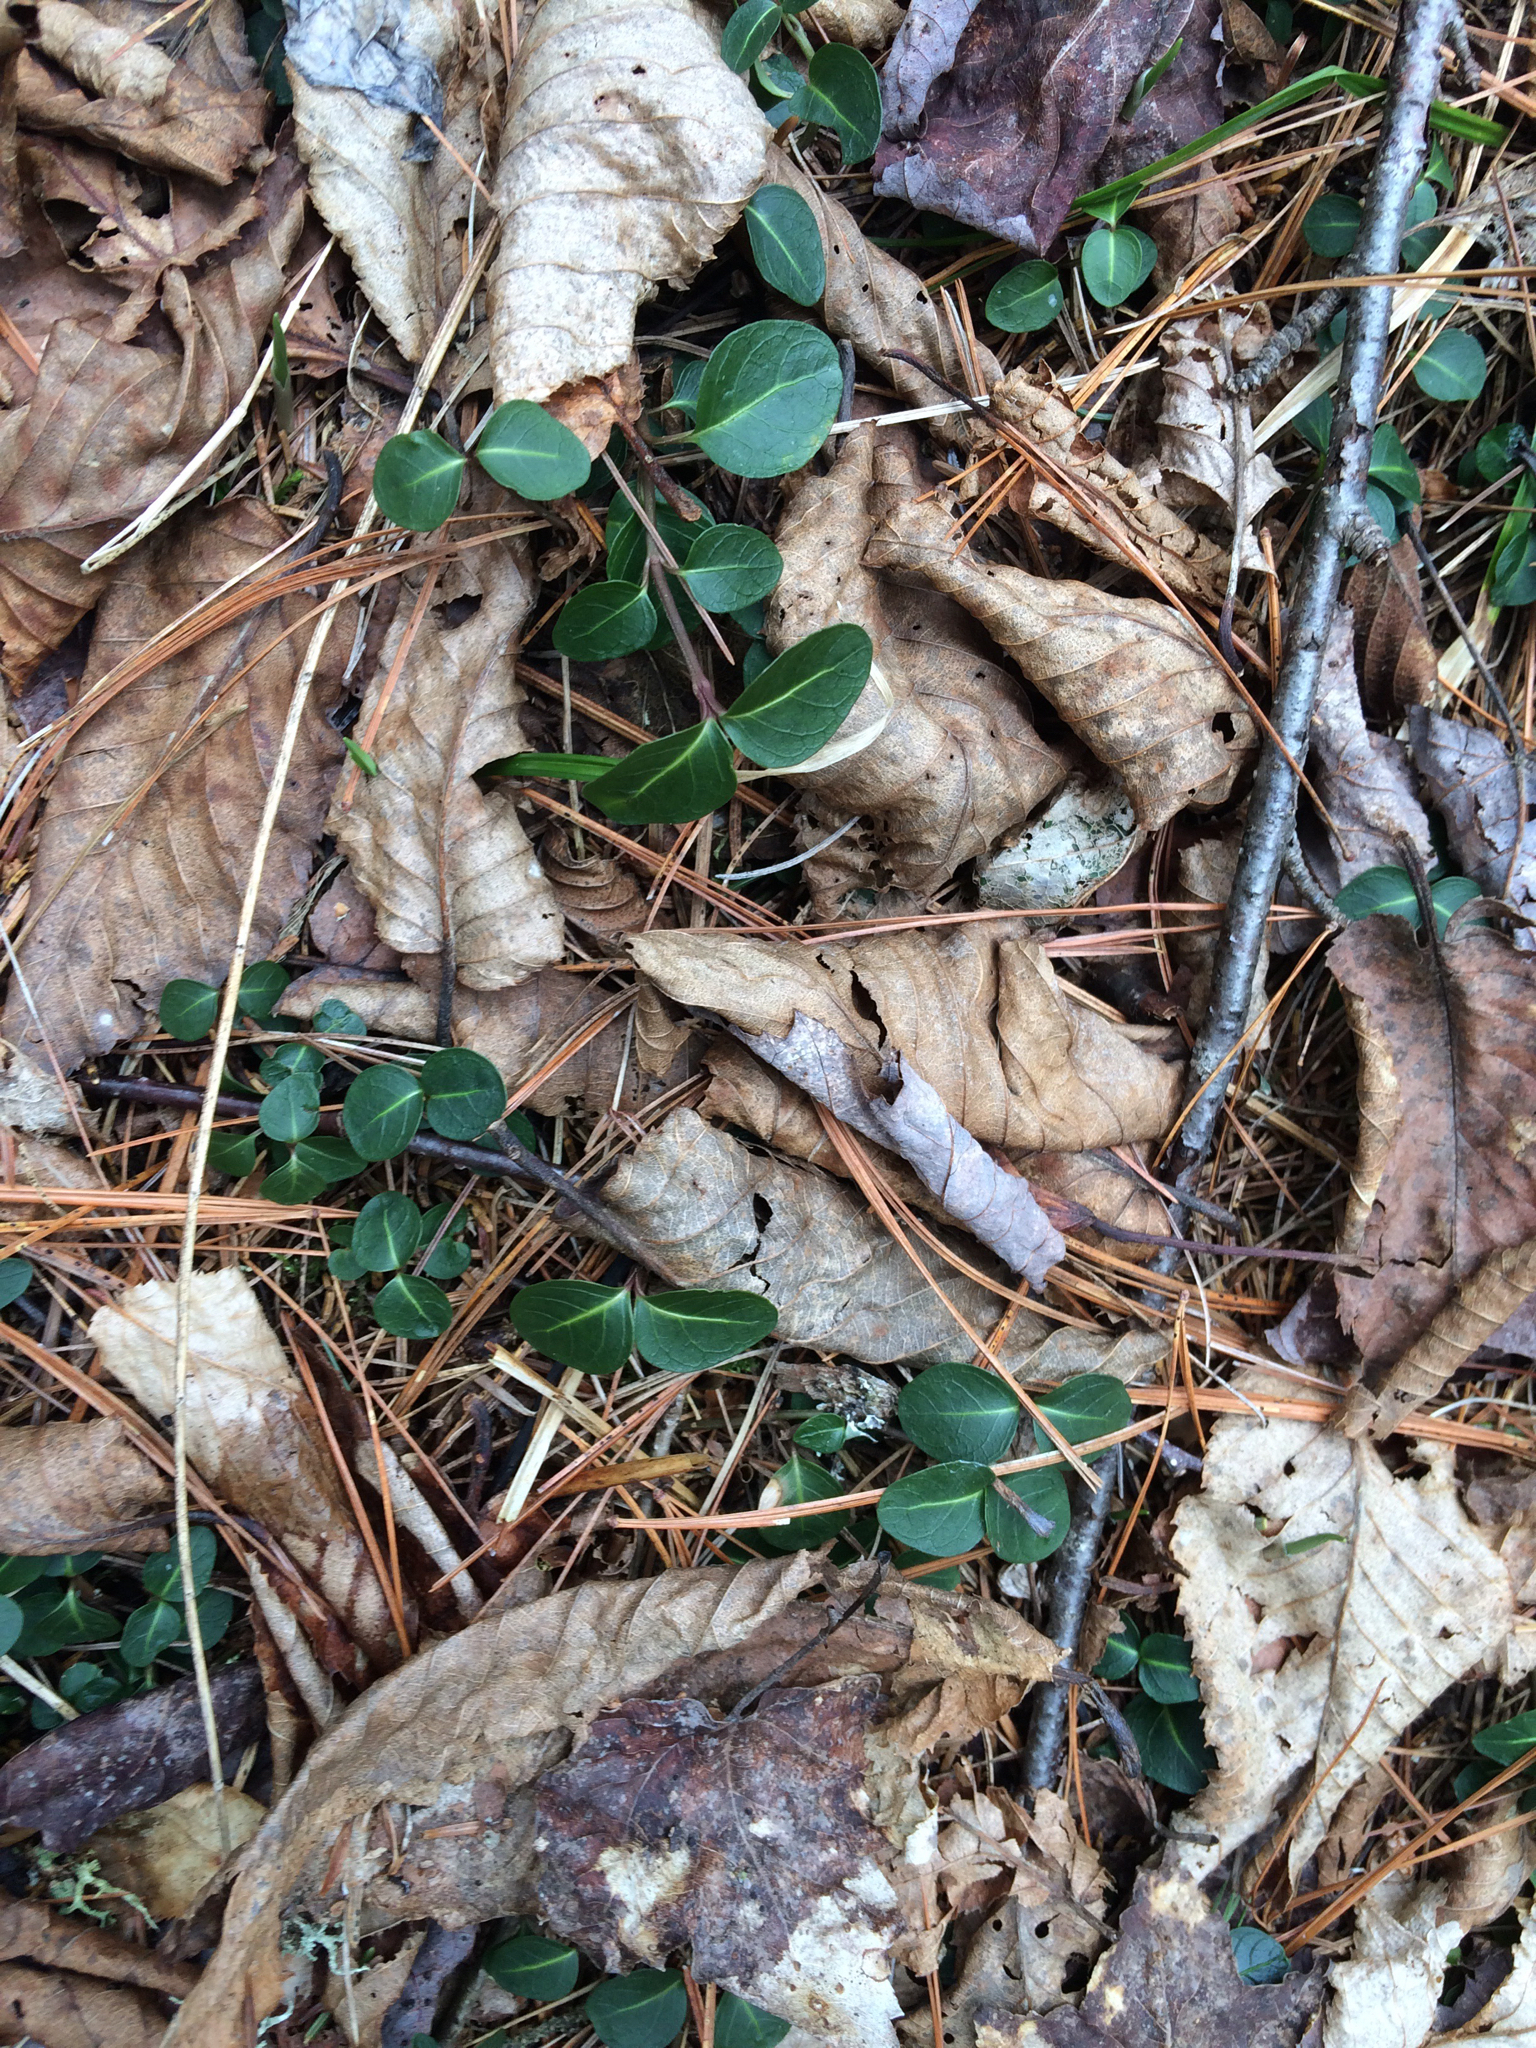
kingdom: Plantae
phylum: Tracheophyta
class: Magnoliopsida
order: Gentianales
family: Rubiaceae
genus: Mitchella
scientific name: Mitchella repens
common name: Partridge-berry
